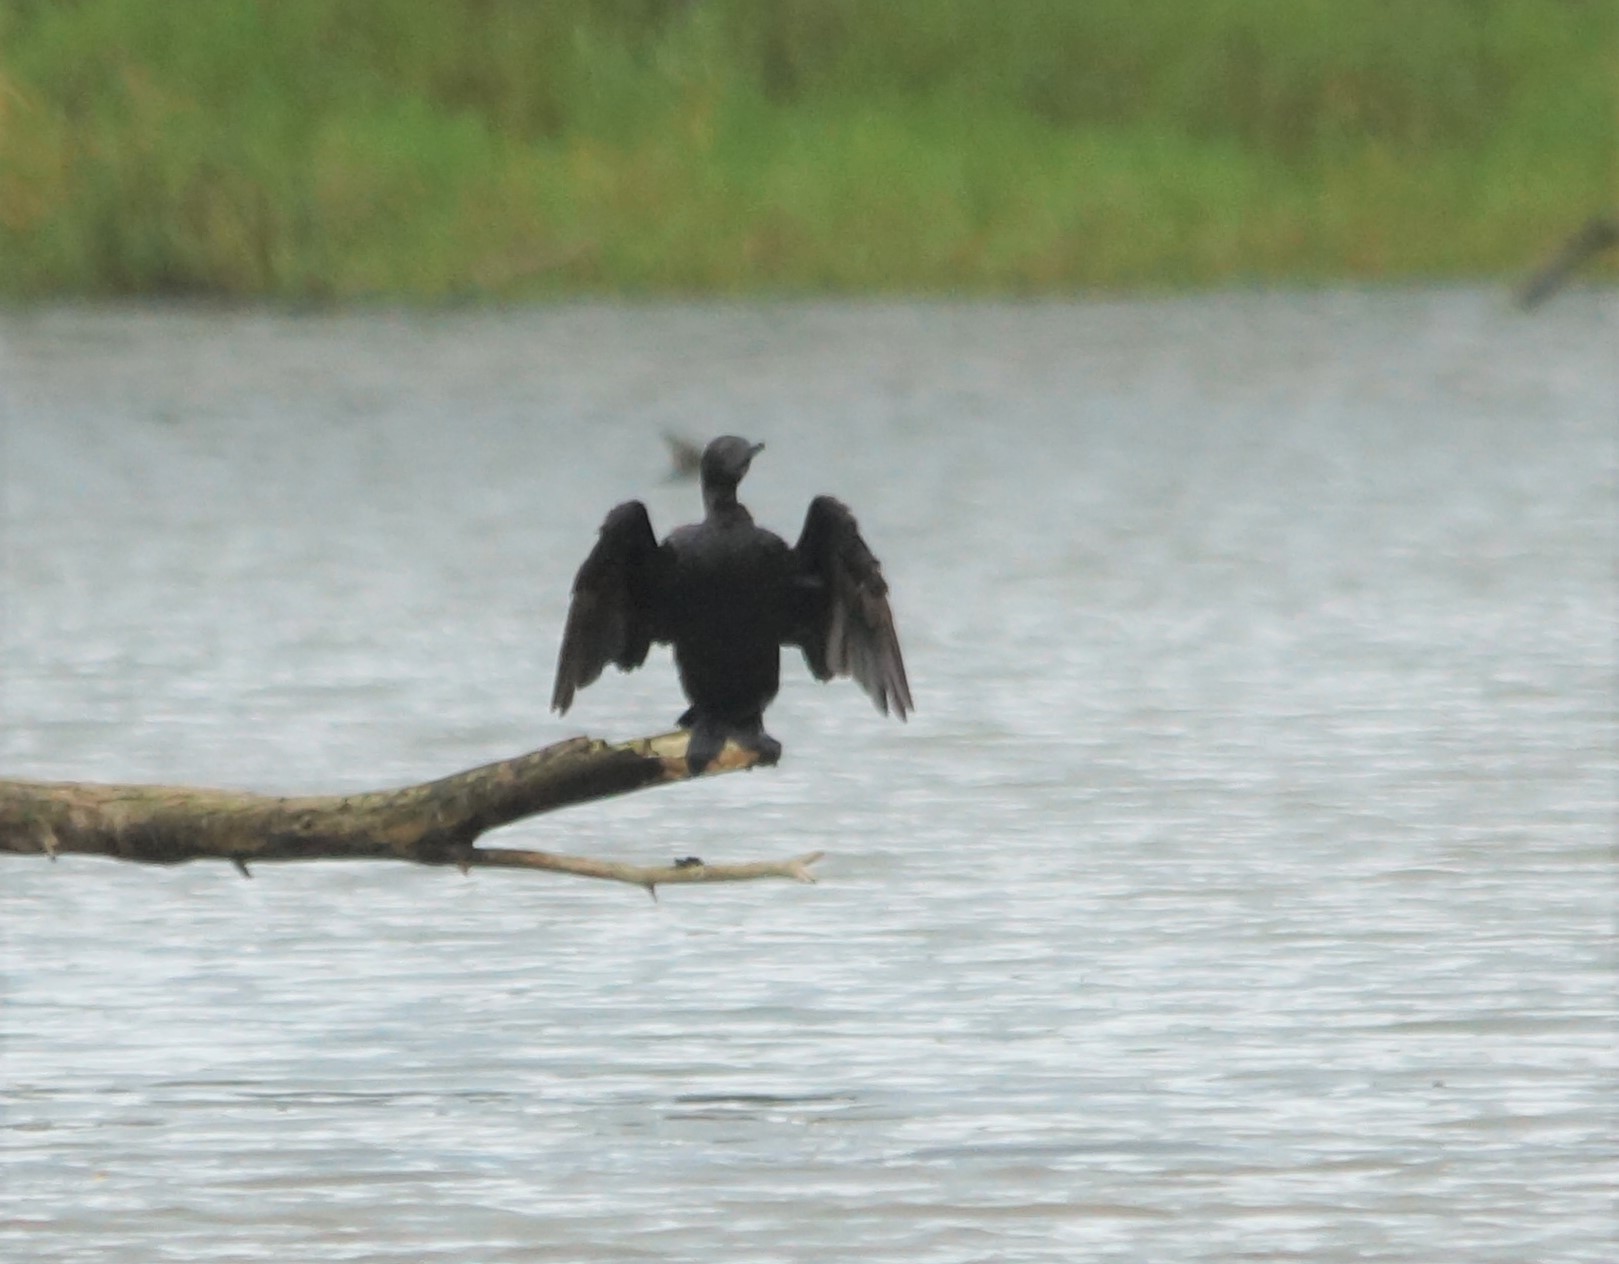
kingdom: Animalia
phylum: Chordata
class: Aves
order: Suliformes
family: Phalacrocoracidae
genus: Phalacrocorax
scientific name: Phalacrocorax sulcirostris
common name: Little black cormorant
